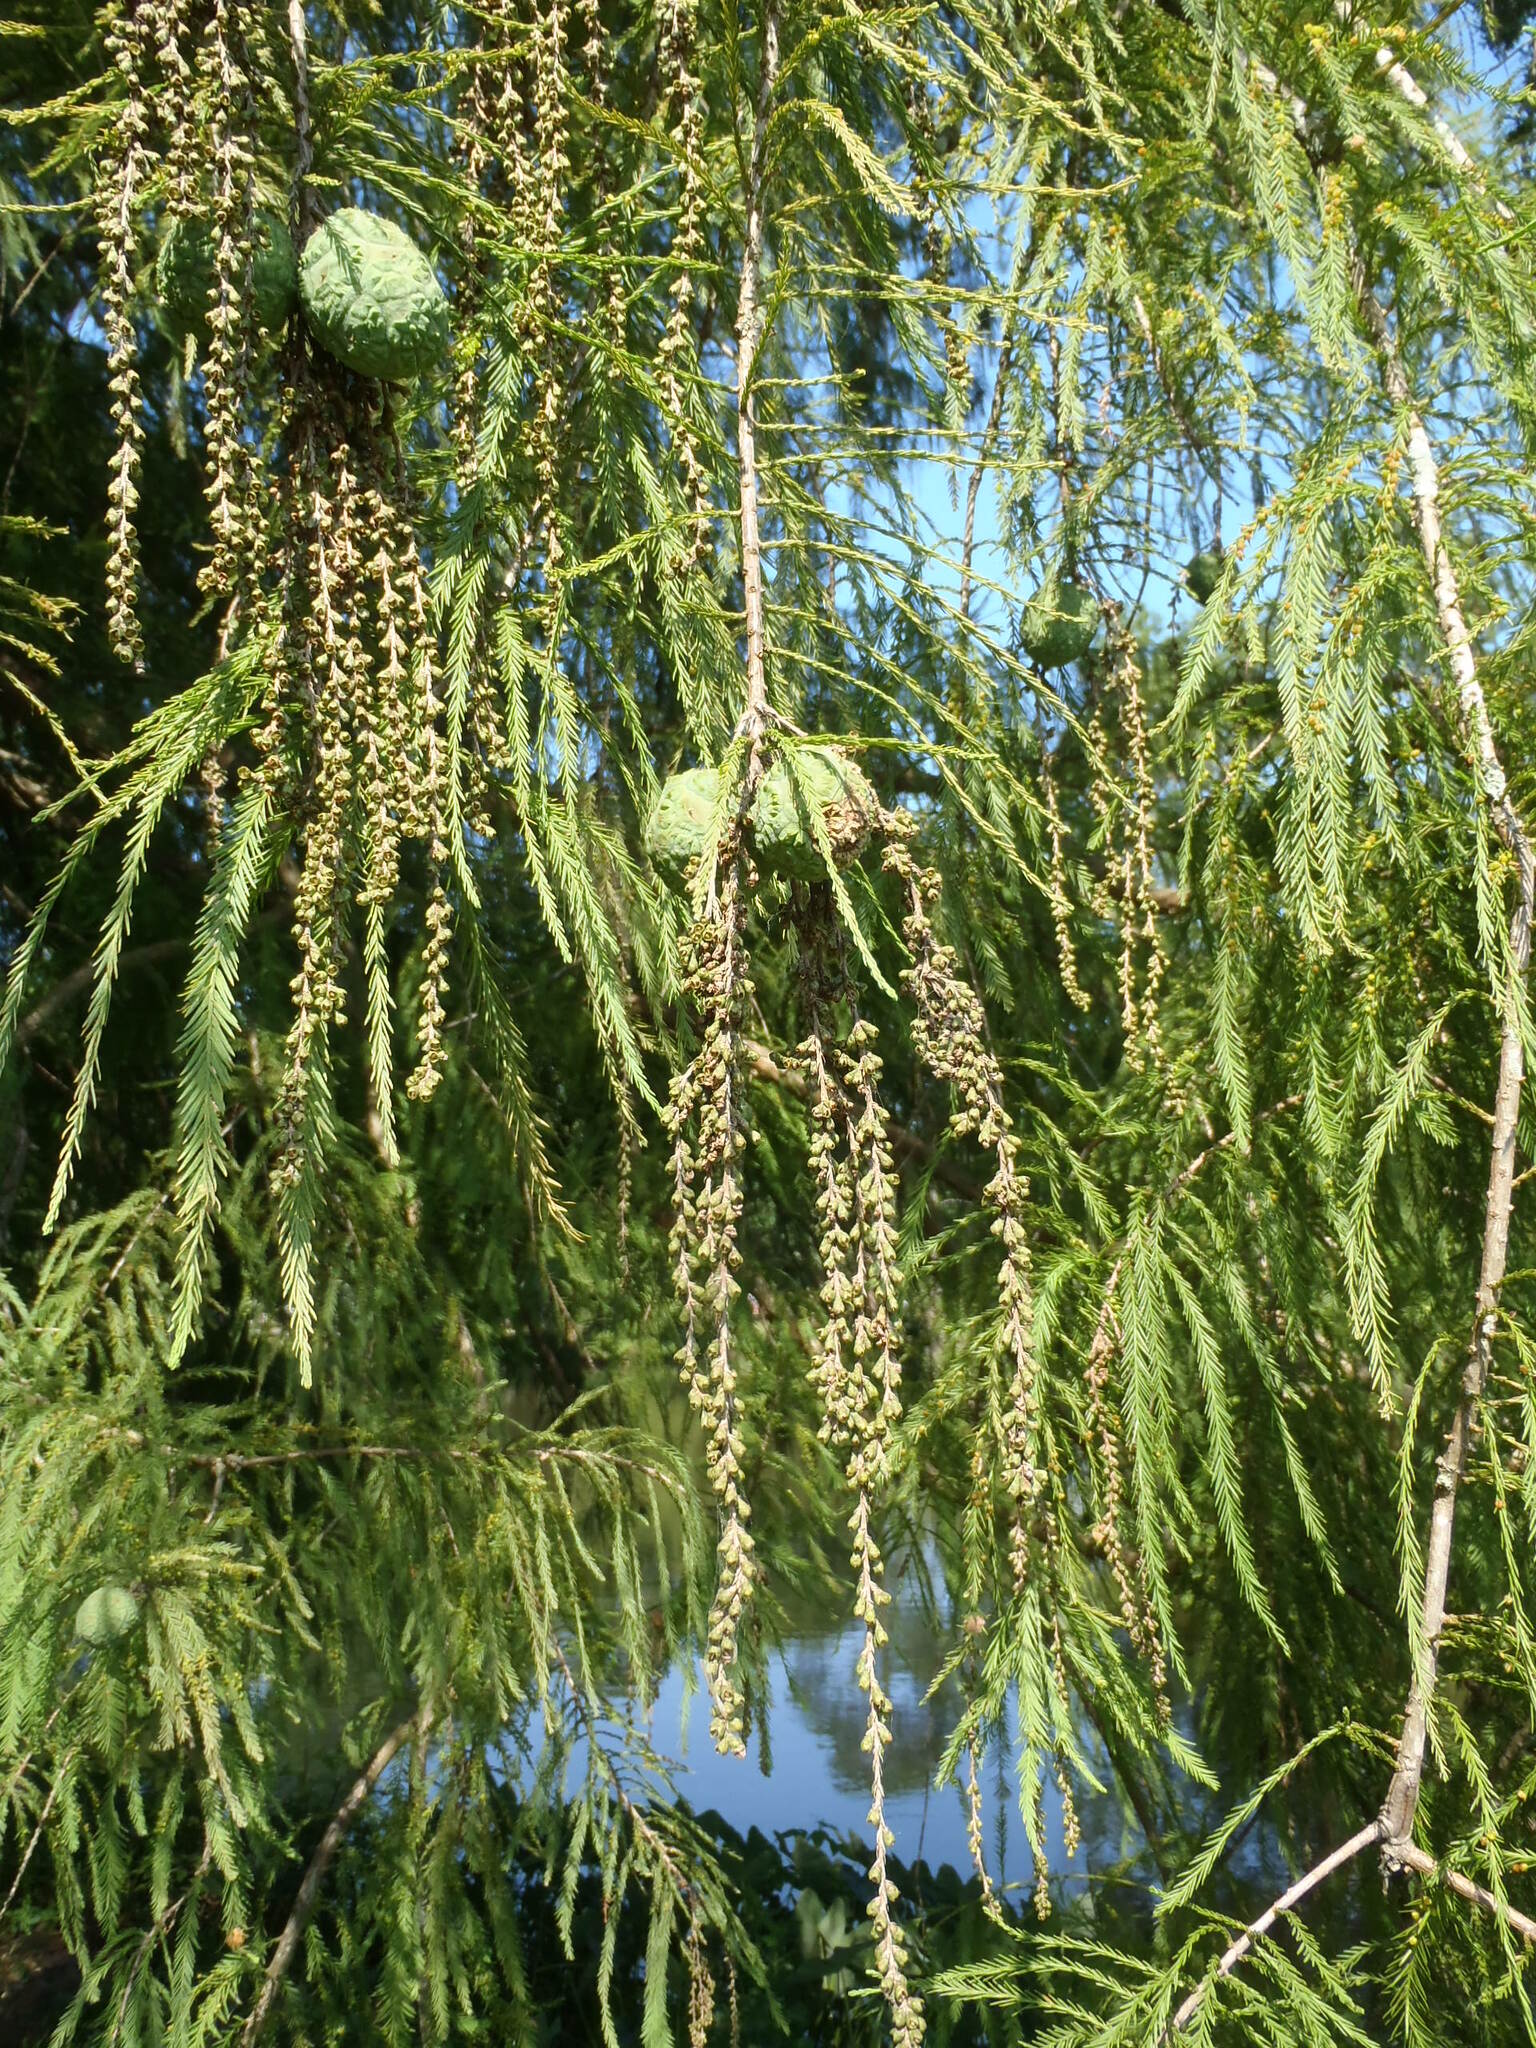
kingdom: Plantae
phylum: Tracheophyta
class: Pinopsida
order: Pinales
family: Cupressaceae
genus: Taxodium
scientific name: Taxodium distichum
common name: Bald cypress
